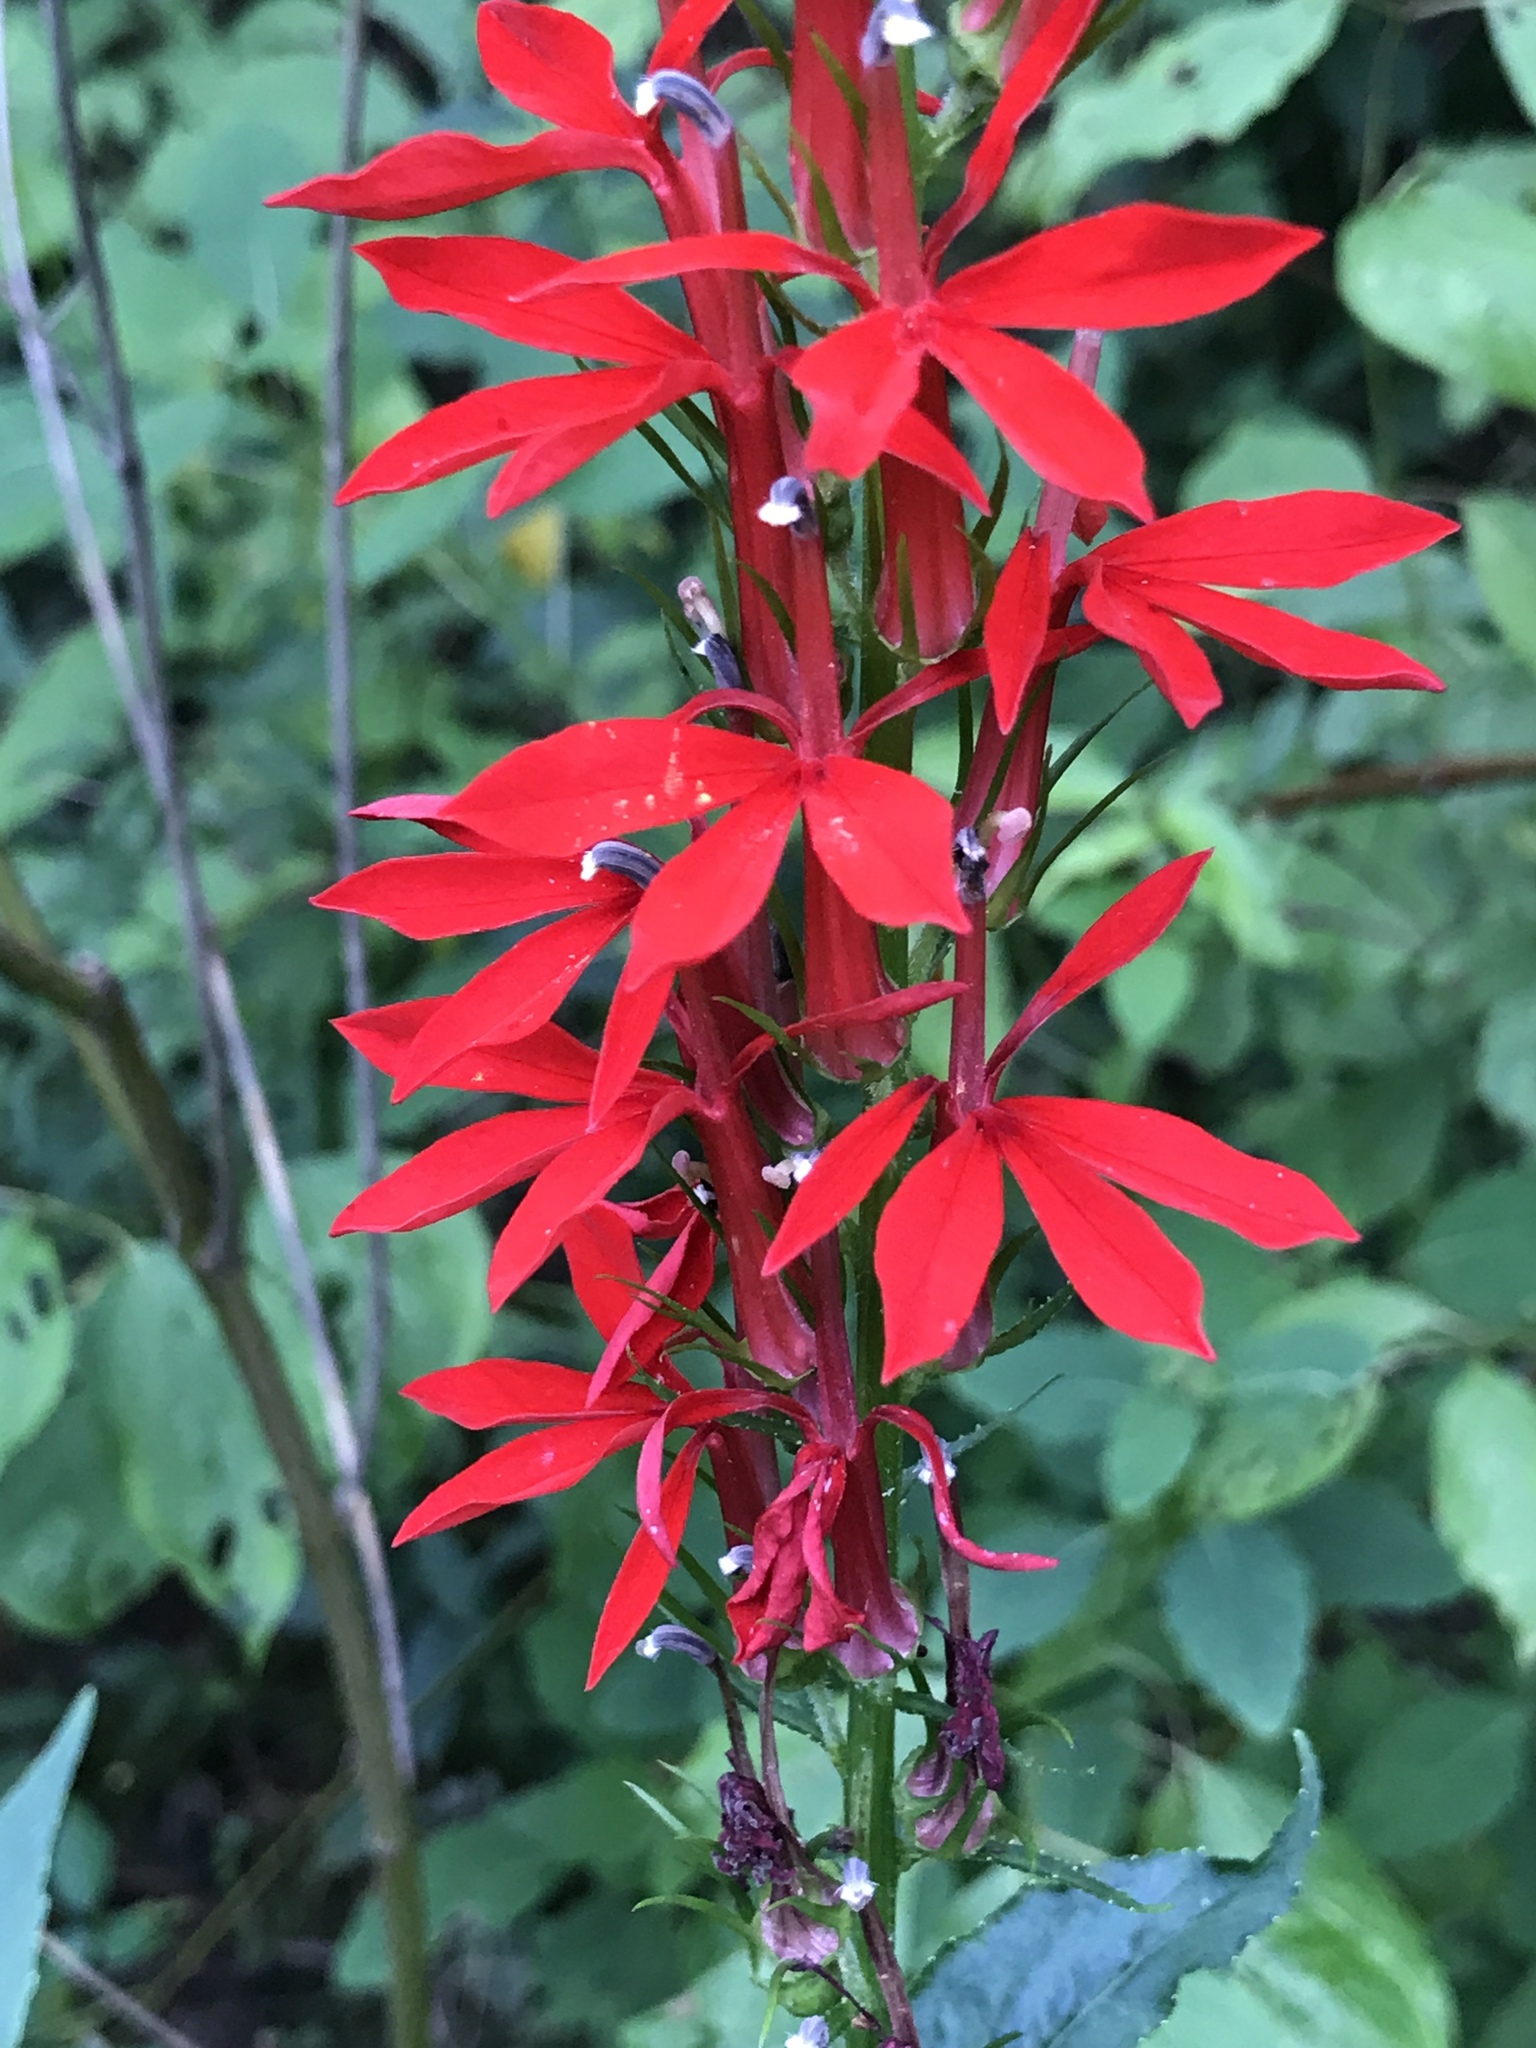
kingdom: Plantae
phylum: Tracheophyta
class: Magnoliopsida
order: Asterales
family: Campanulaceae
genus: Lobelia
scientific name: Lobelia cardinalis
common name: Cardinal flower
